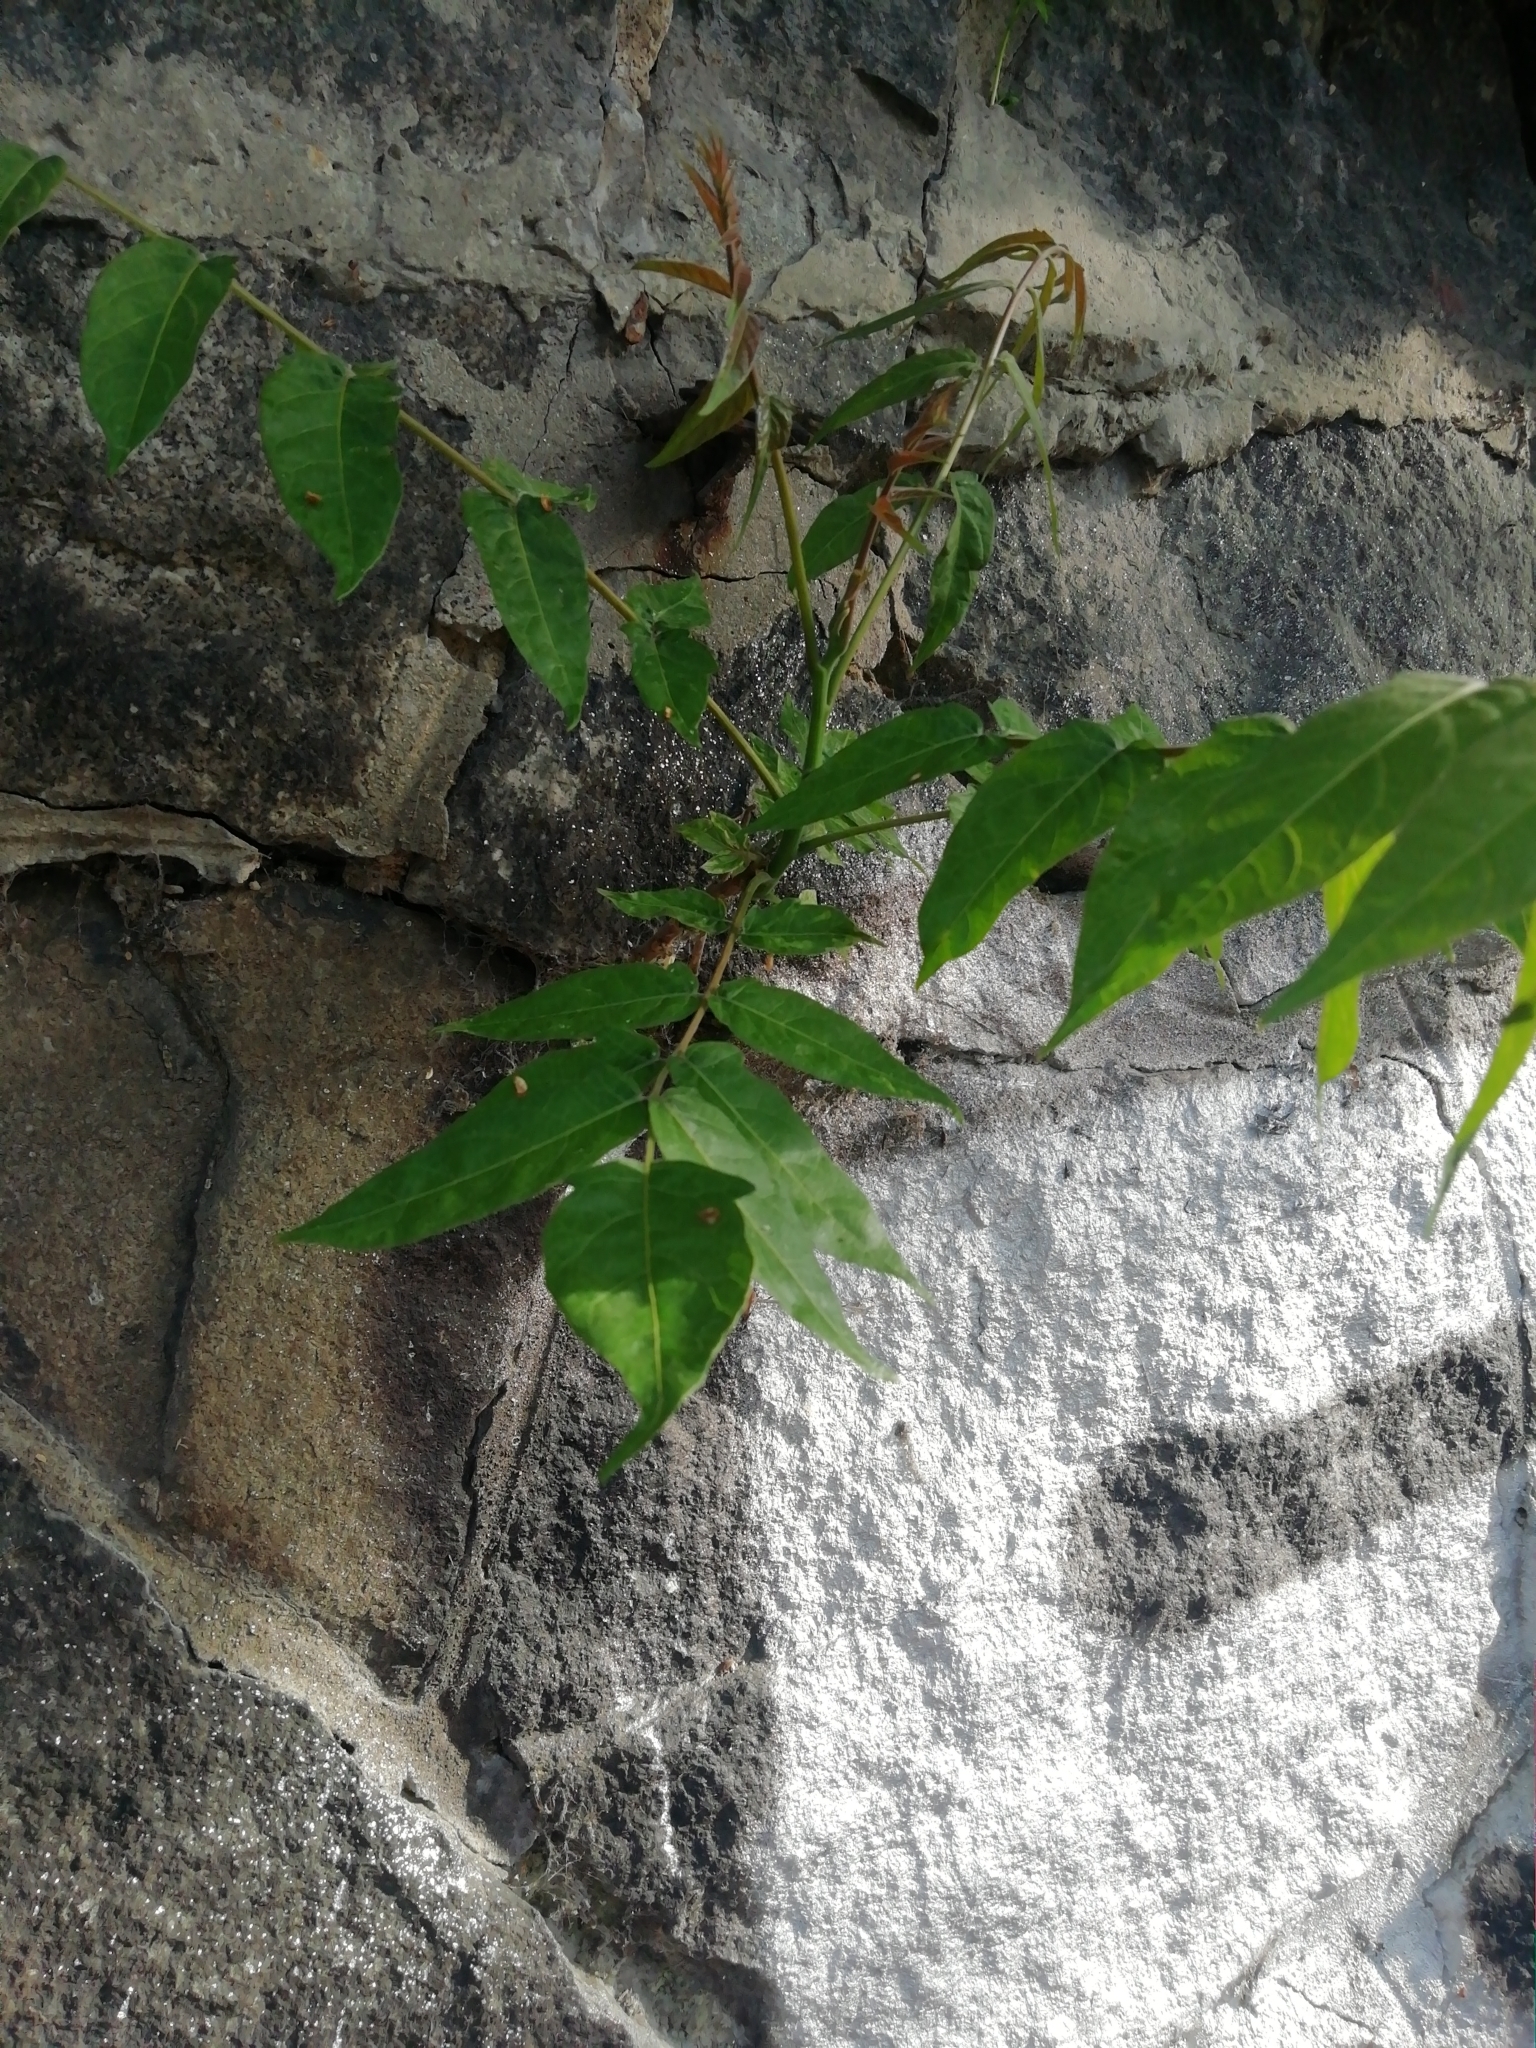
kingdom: Plantae
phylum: Tracheophyta
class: Magnoliopsida
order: Sapindales
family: Simaroubaceae
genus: Ailanthus
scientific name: Ailanthus altissima
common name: Tree-of-heaven
